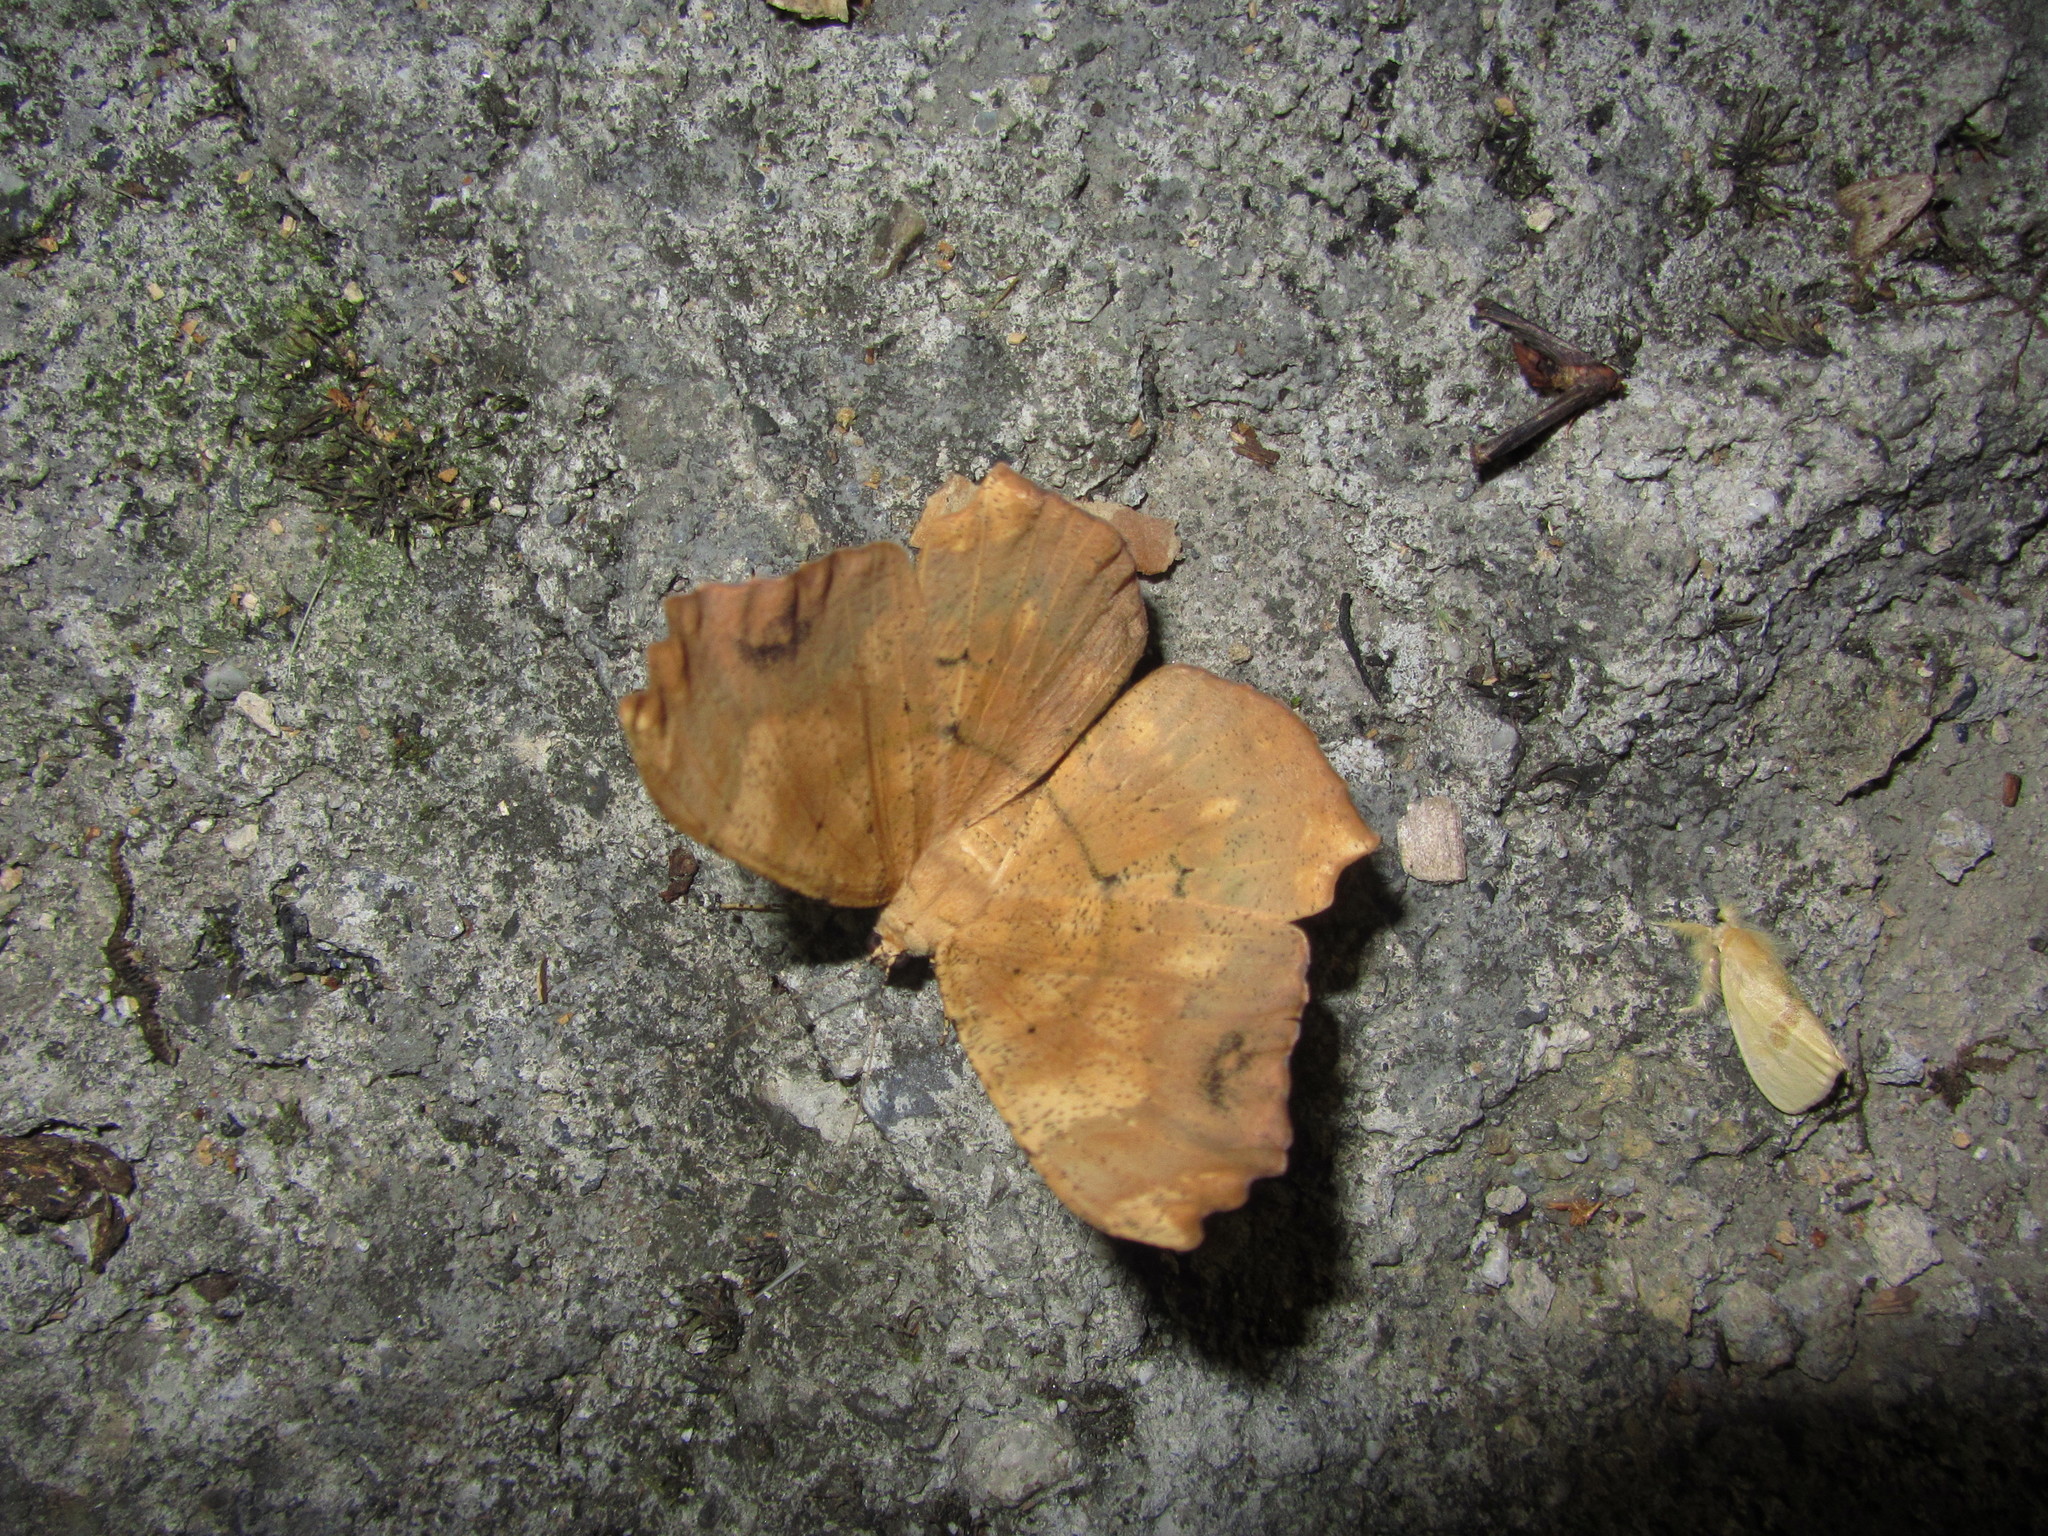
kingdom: Animalia
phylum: Arthropoda
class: Insecta
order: Lepidoptera
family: Geometridae
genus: Chorodna
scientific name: Chorodna testaceata
